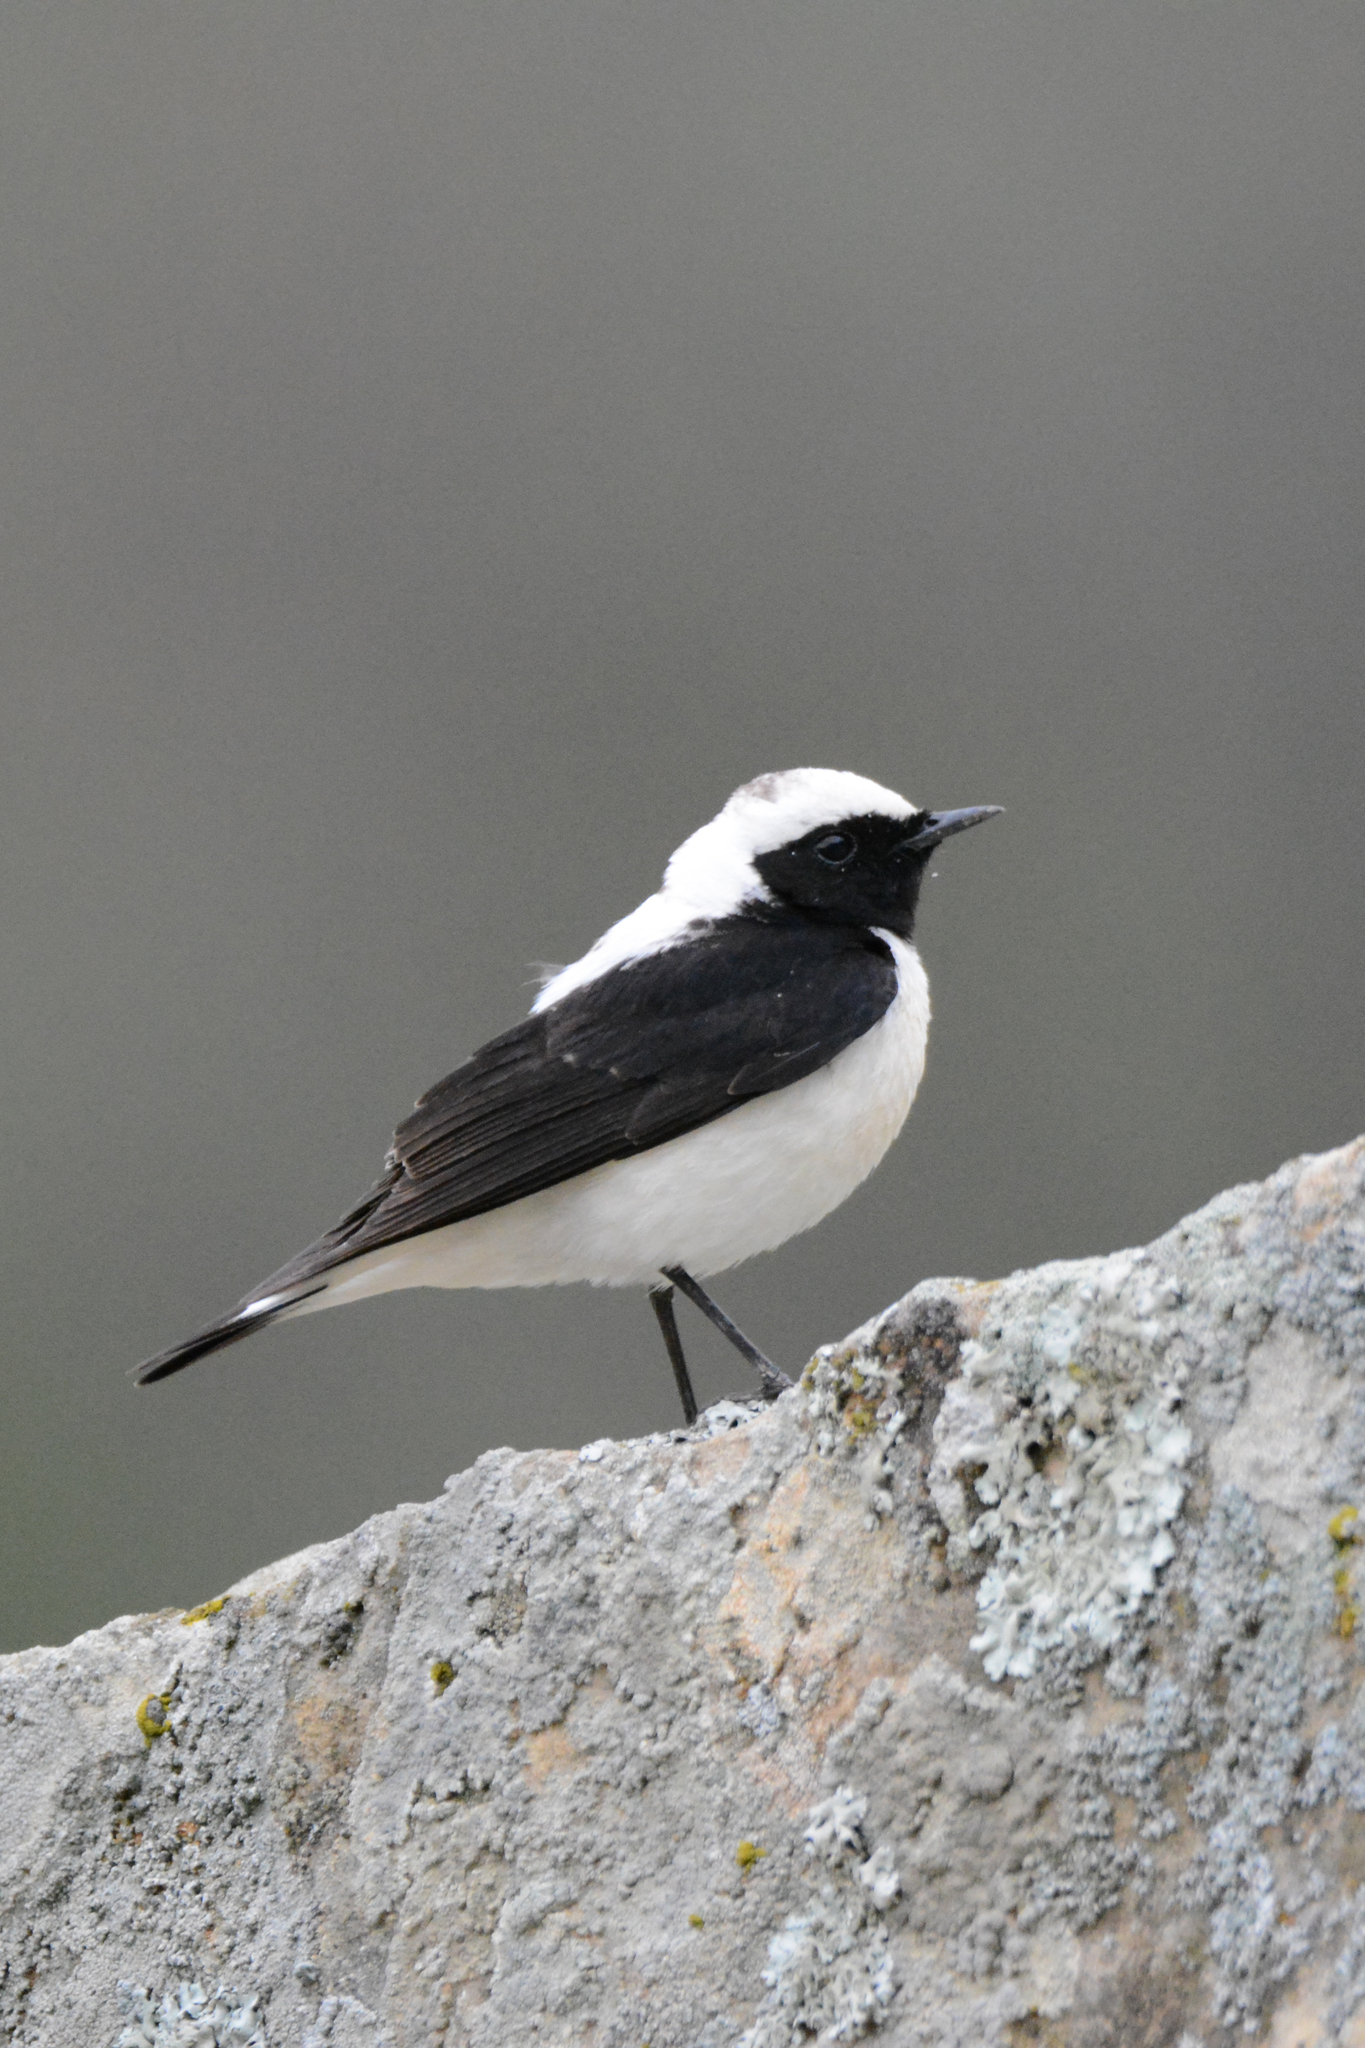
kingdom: Animalia
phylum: Chordata
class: Aves
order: Passeriformes
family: Muscicapidae
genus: Oenanthe
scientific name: Oenanthe hispanica
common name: Black-eared wheatear
